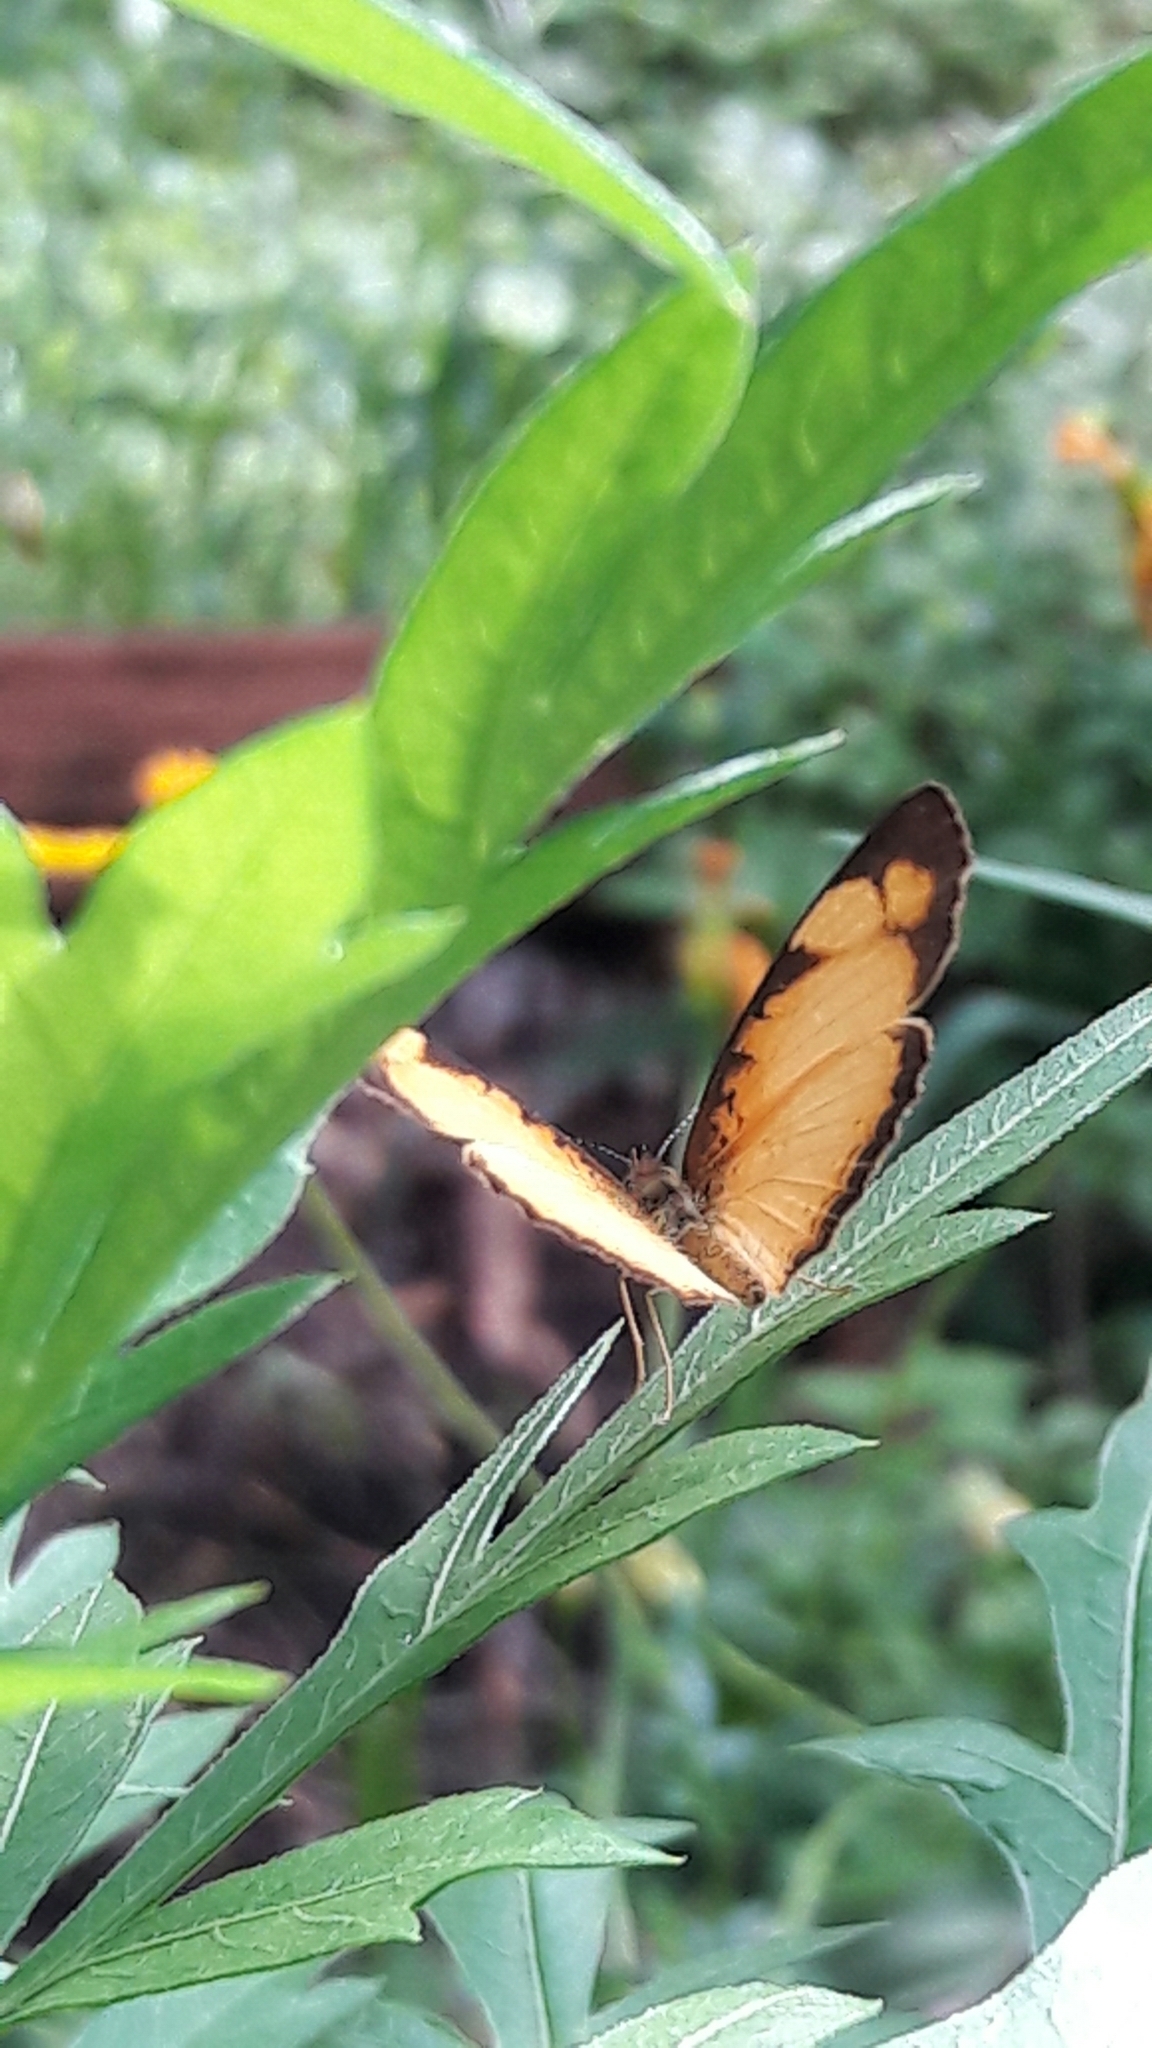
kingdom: Animalia
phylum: Arthropoda
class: Insecta
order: Lepidoptera
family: Nymphalidae
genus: Tegosa
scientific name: Tegosa claudina
